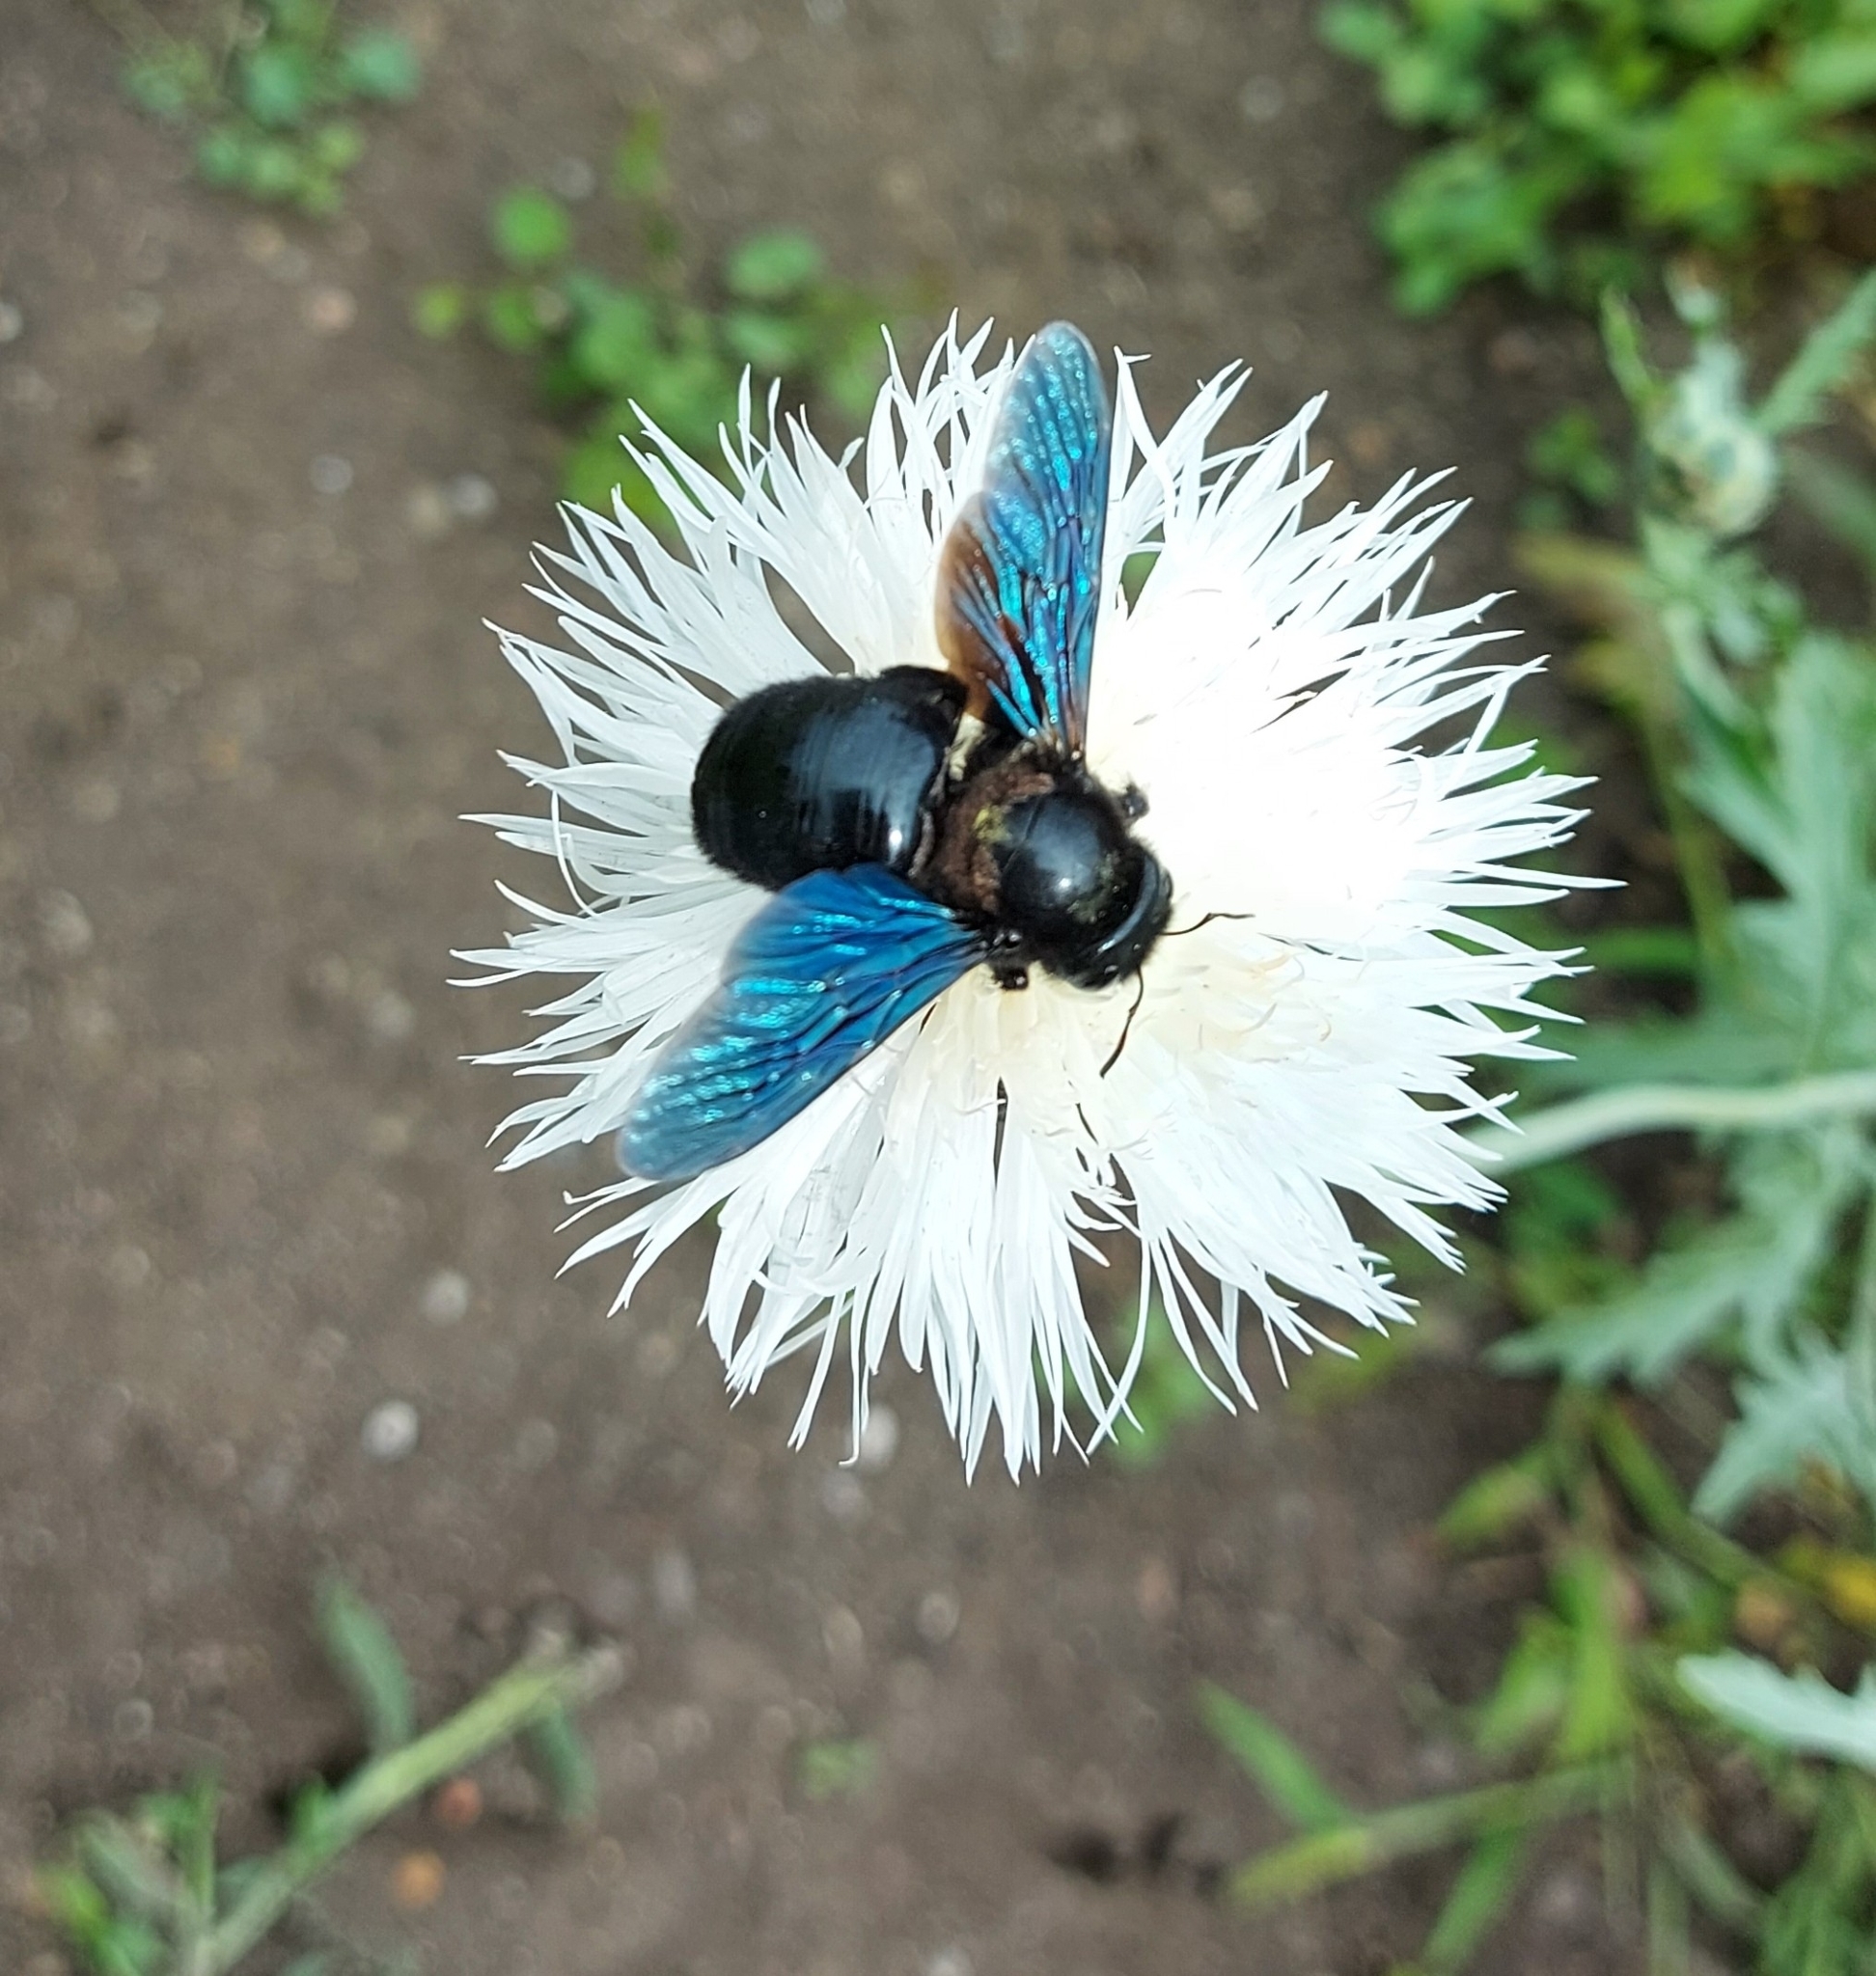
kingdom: Animalia
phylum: Arthropoda
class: Insecta
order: Hymenoptera
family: Apidae
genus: Xylocopa
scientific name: Xylocopa violacea
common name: Violet carpenter bee
